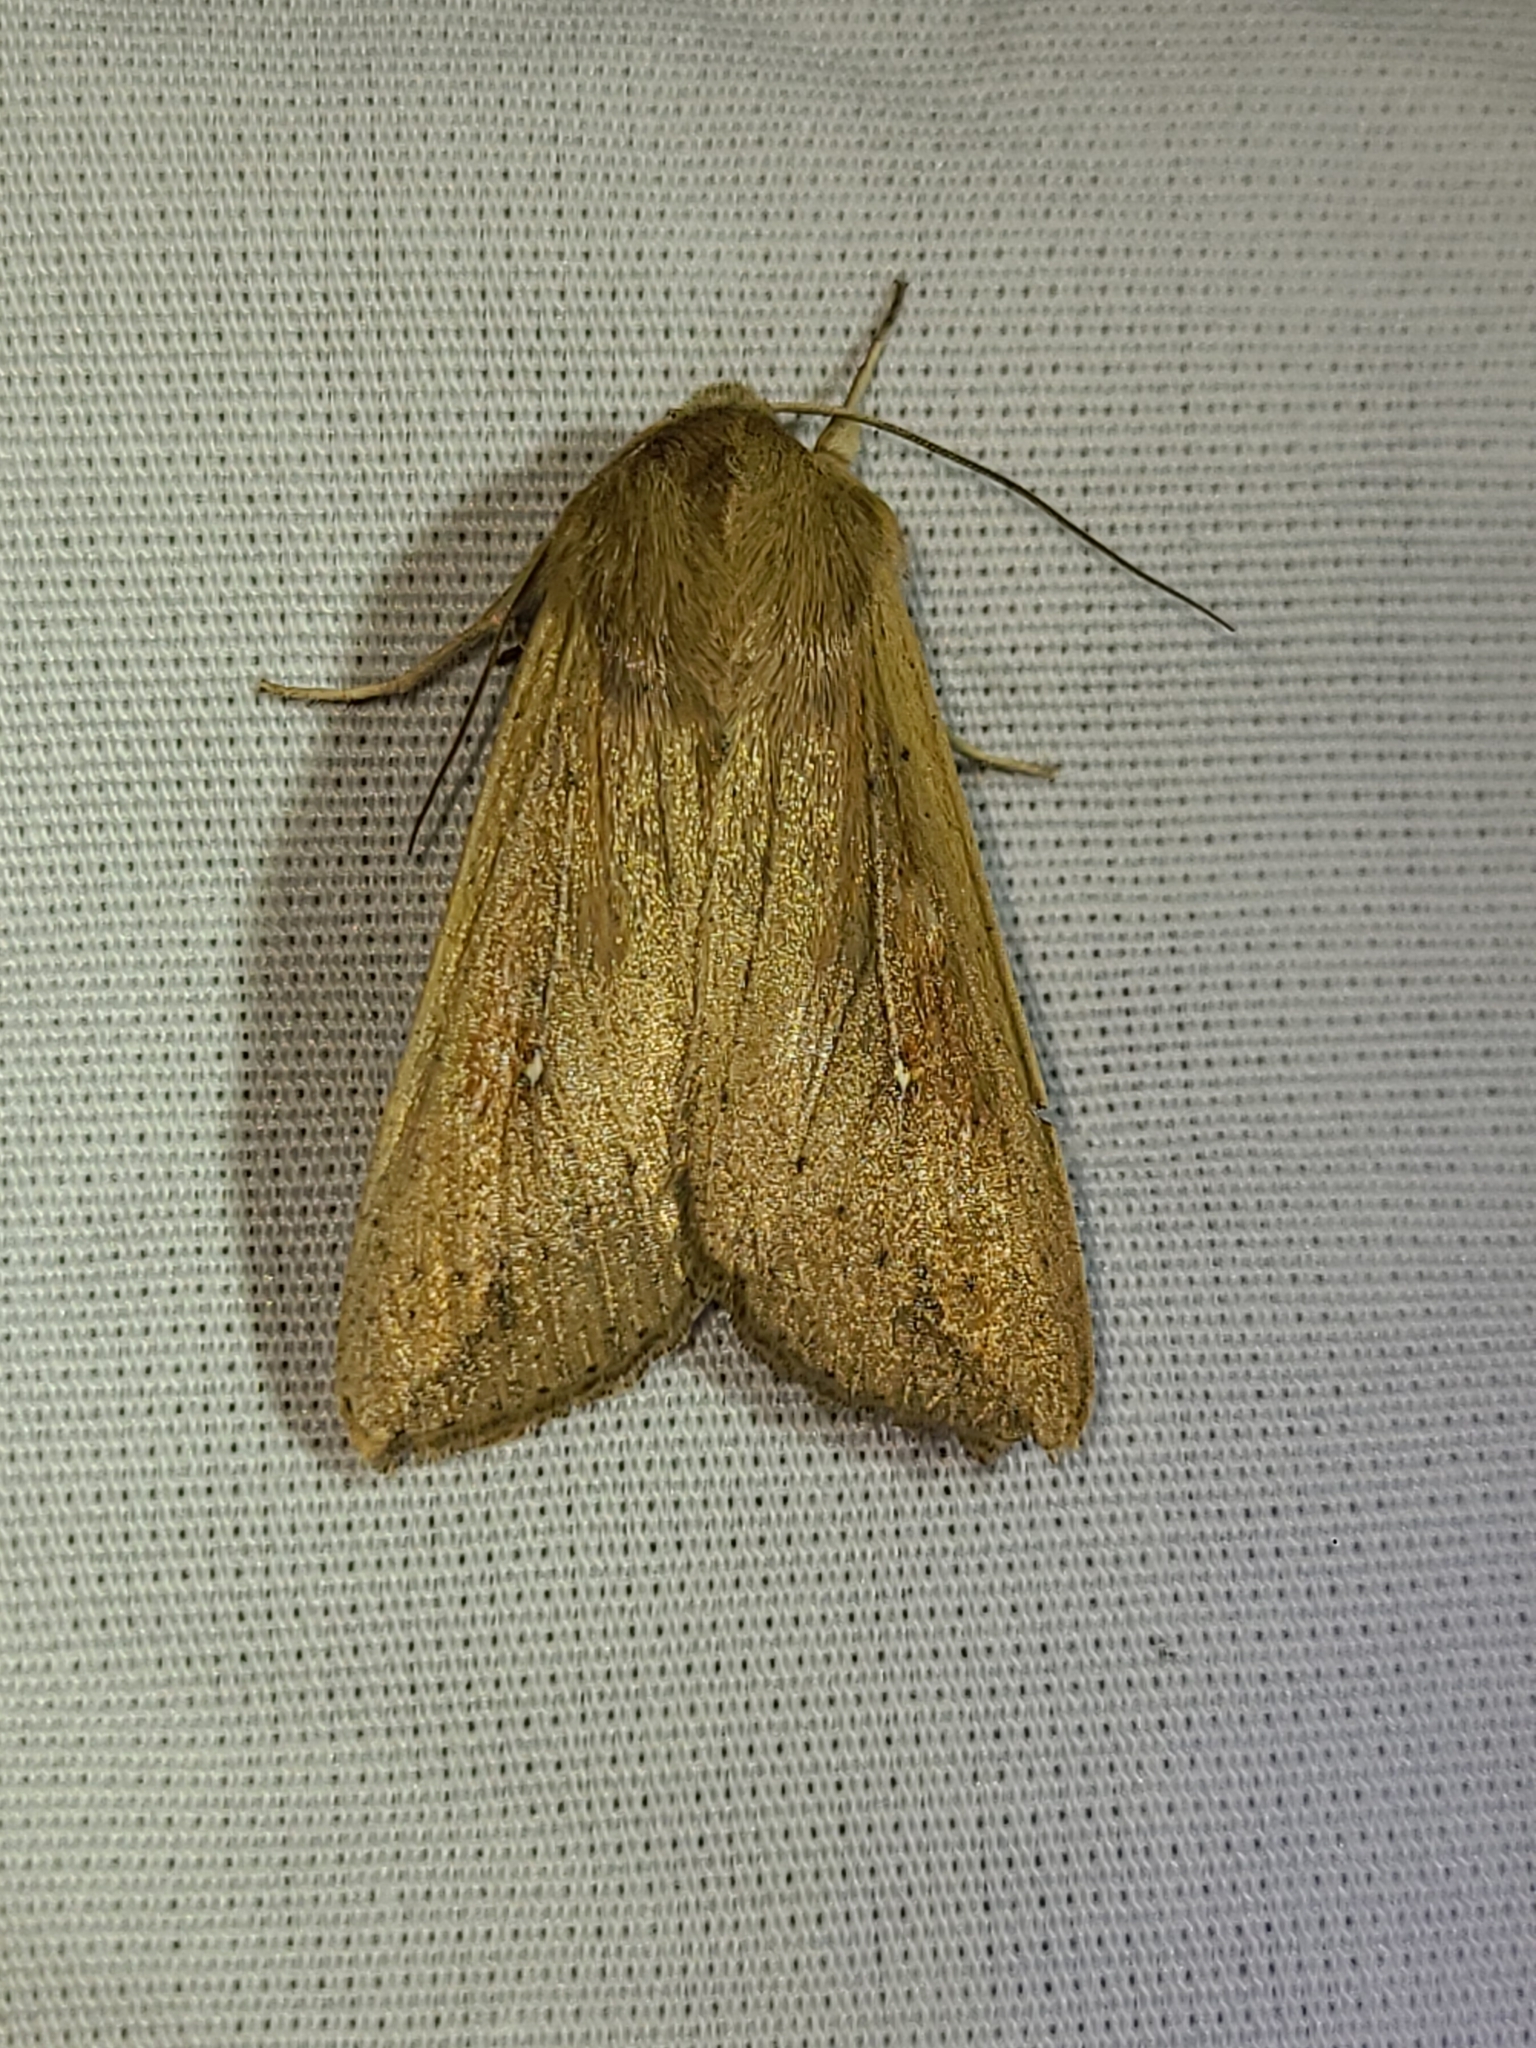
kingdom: Animalia
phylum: Arthropoda
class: Insecta
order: Lepidoptera
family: Noctuidae
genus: Mythimna
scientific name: Mythimna unipuncta
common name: White-speck
